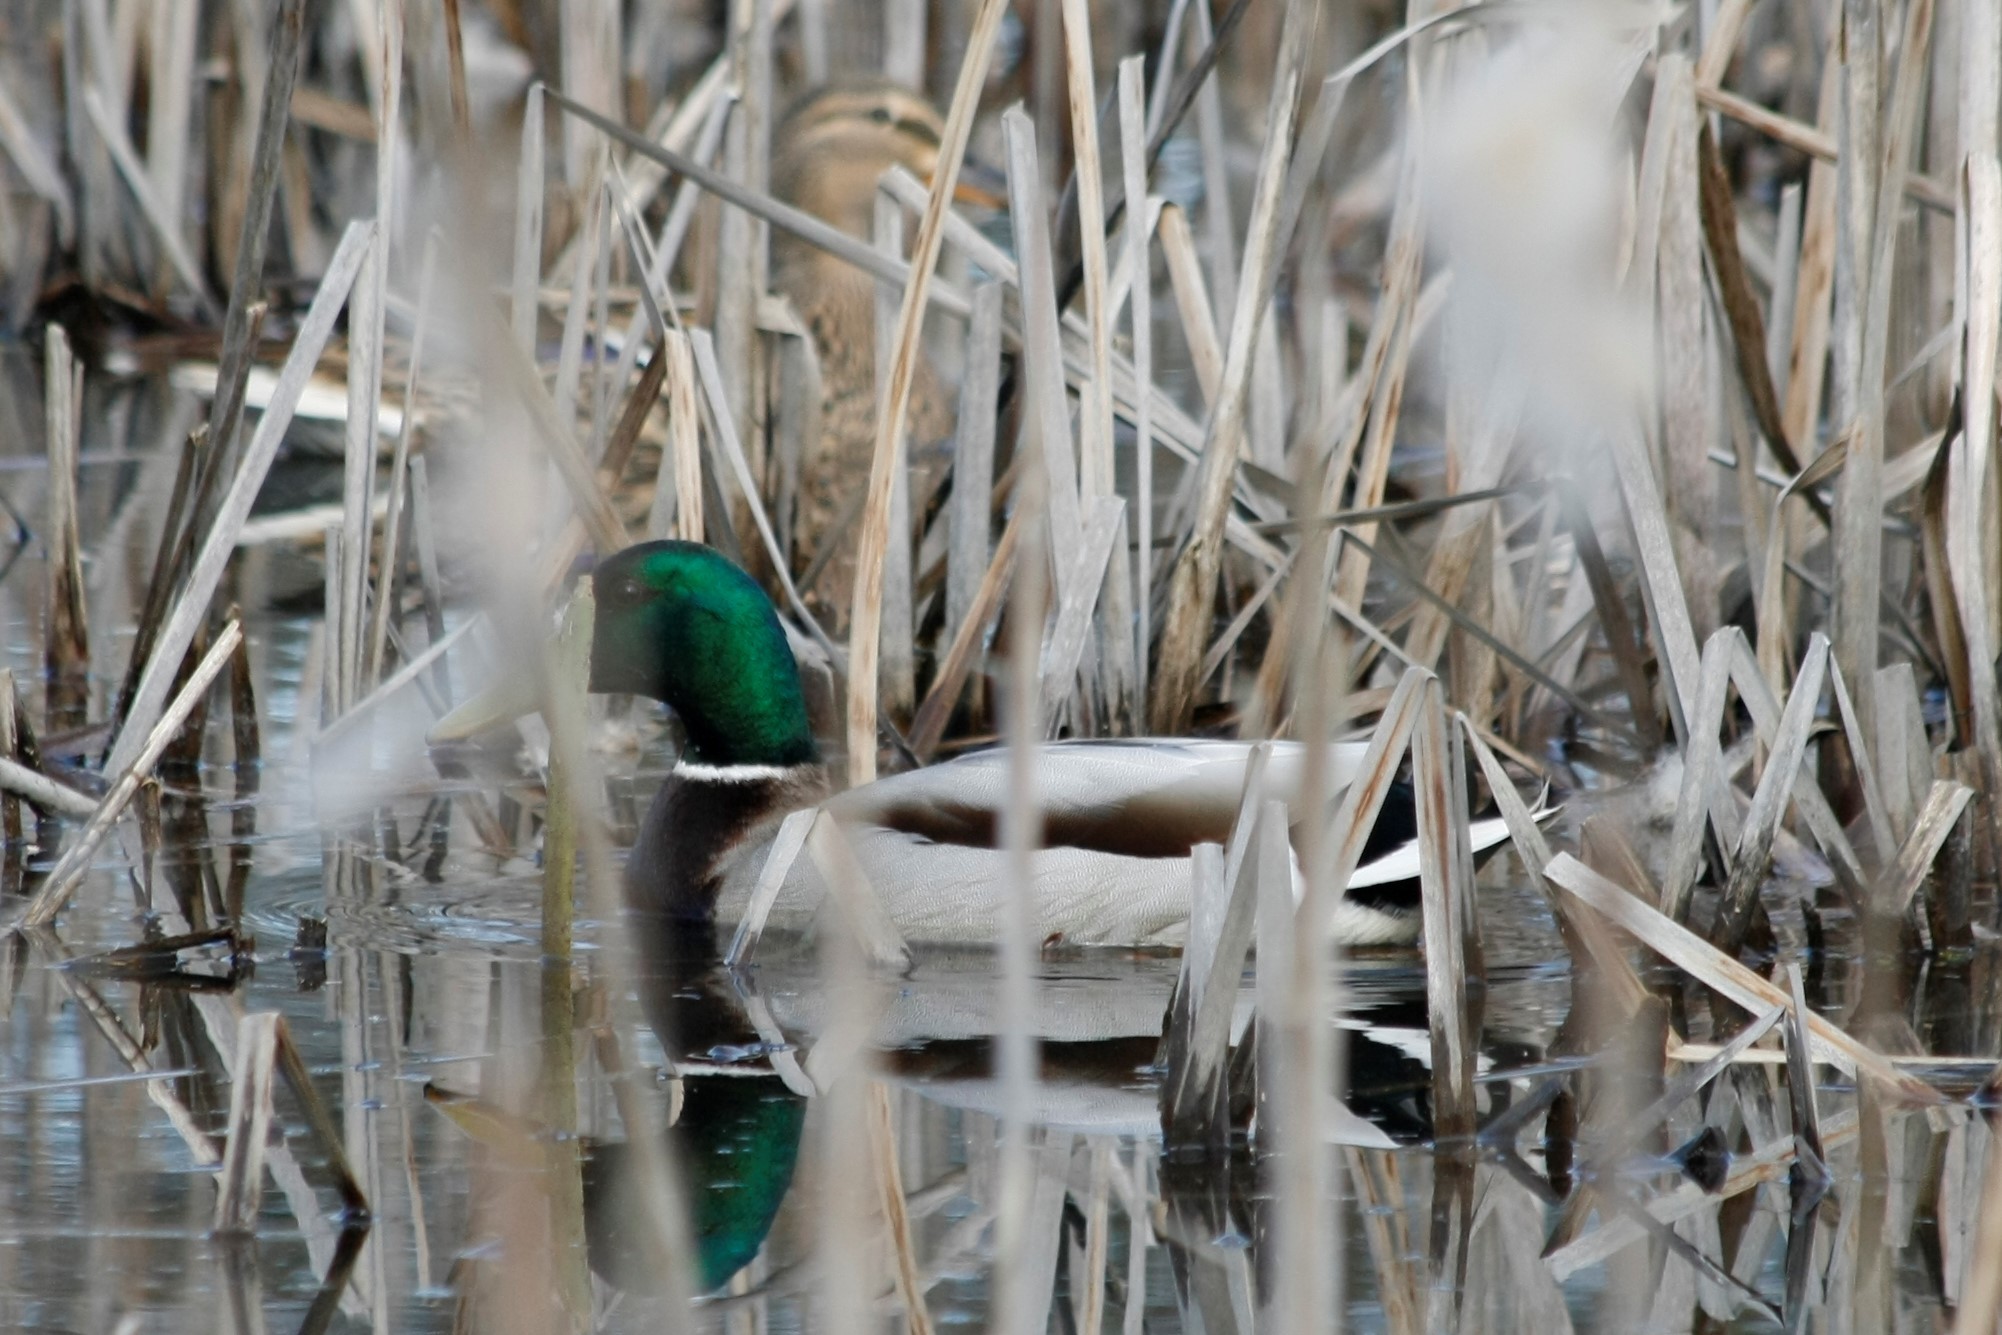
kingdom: Animalia
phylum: Chordata
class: Aves
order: Anseriformes
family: Anatidae
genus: Anas
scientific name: Anas platyrhynchos
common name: Mallard
